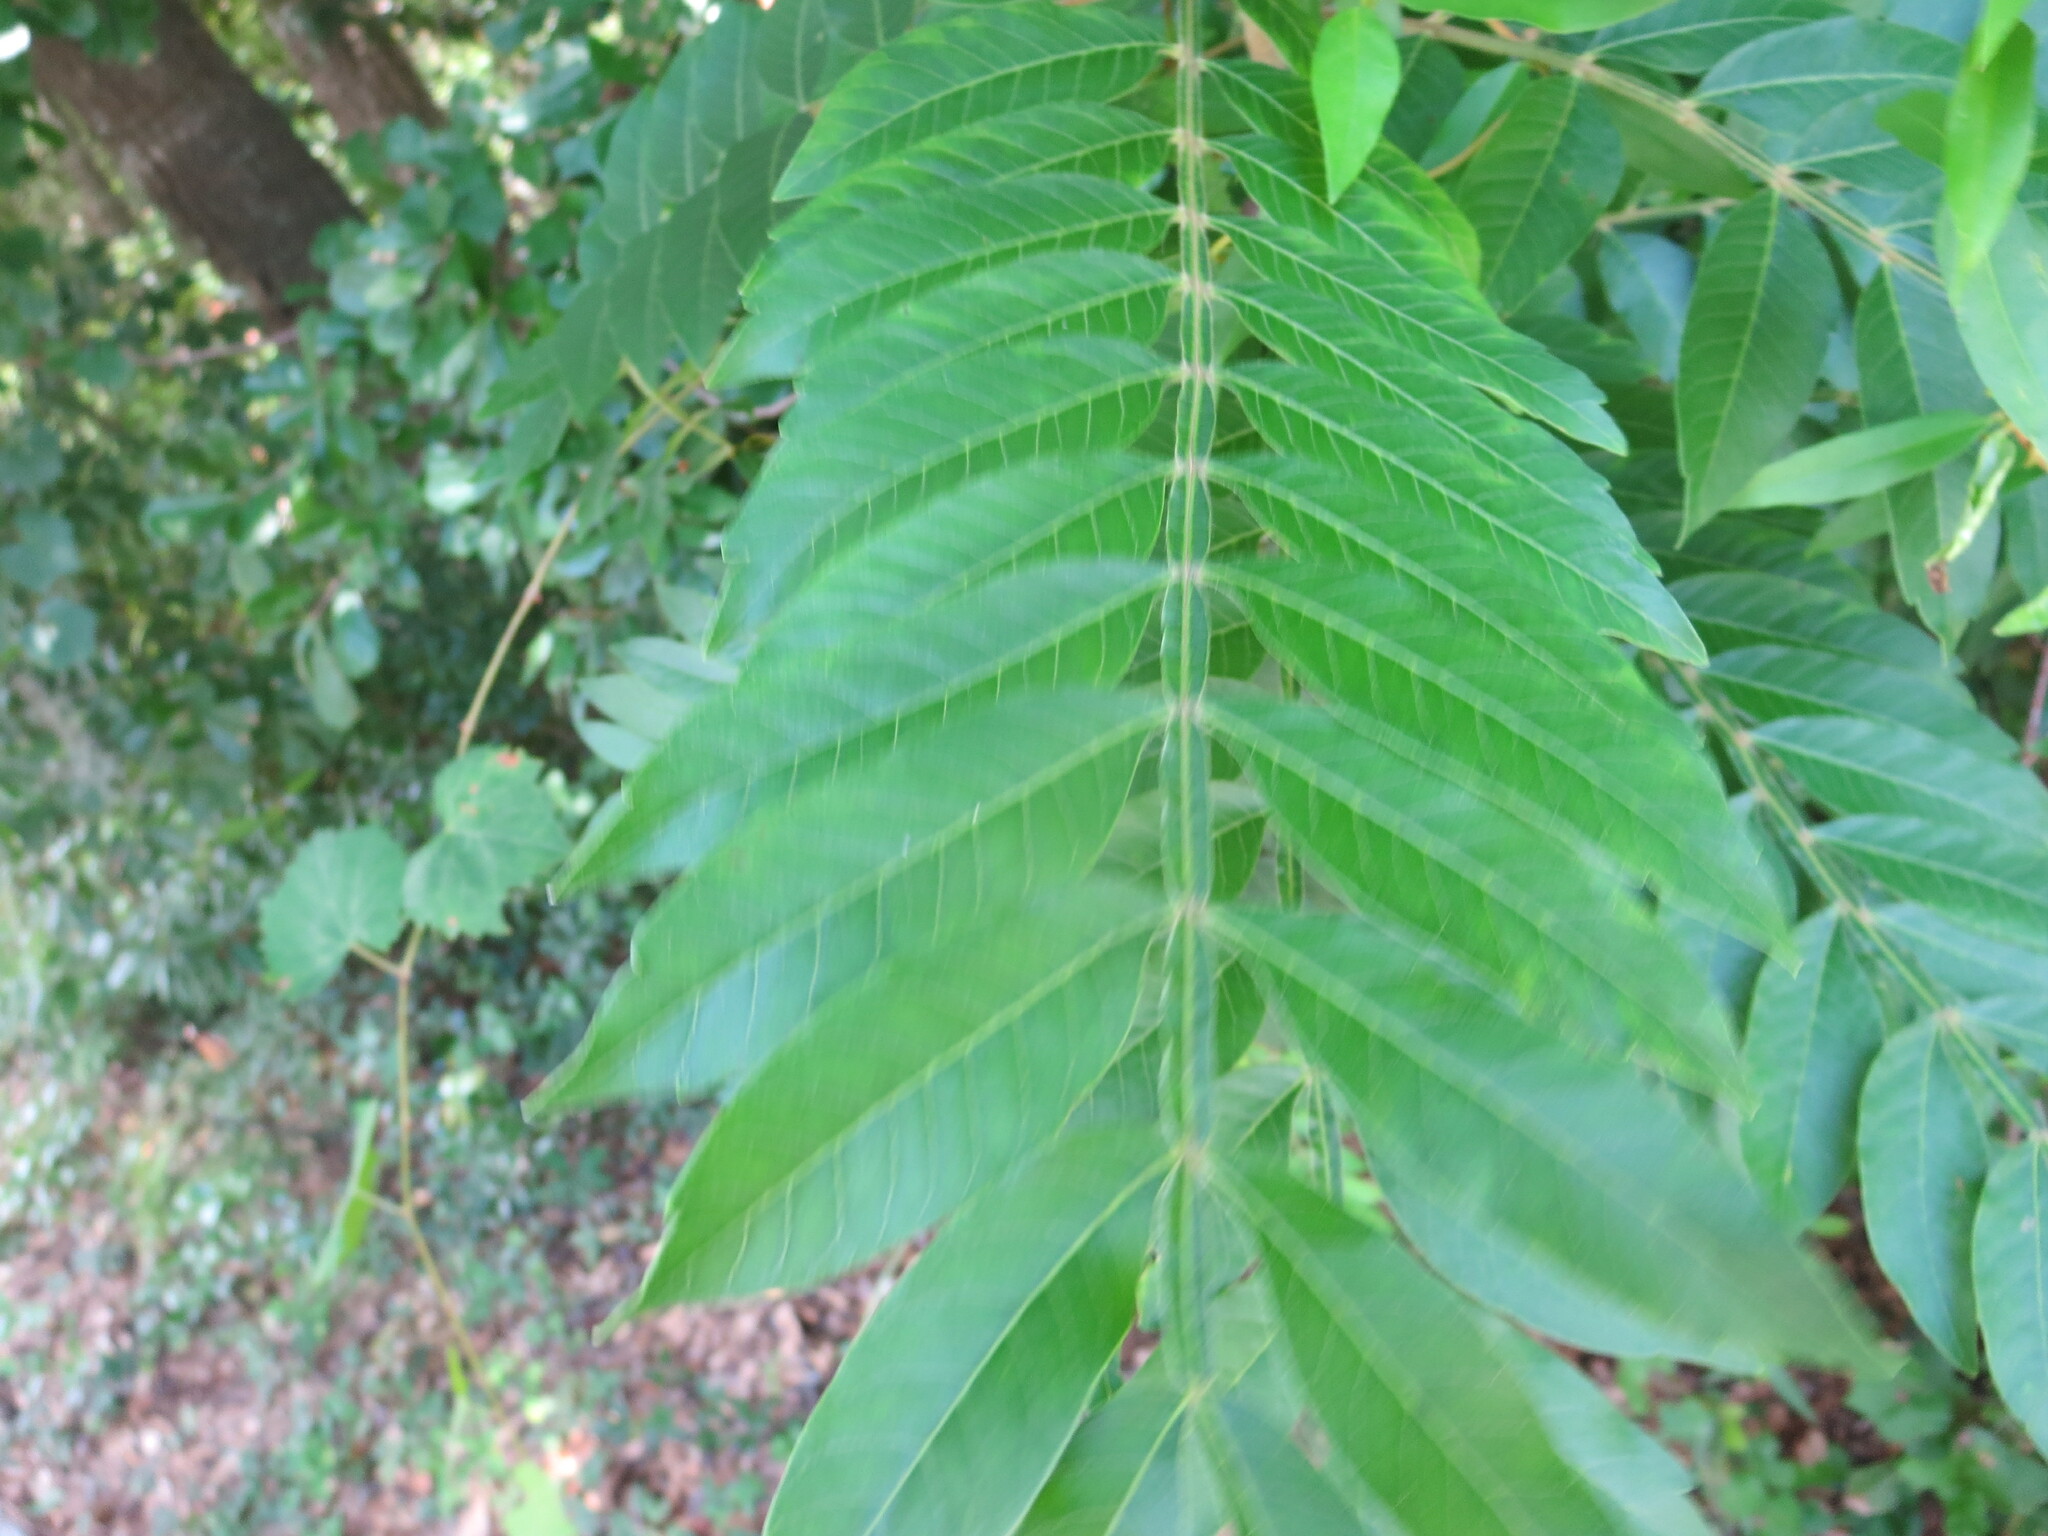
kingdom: Plantae
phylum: Tracheophyta
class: Magnoliopsida
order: Sapindales
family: Anacardiaceae
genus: Rhus
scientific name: Rhus copallina
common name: Shining sumac
